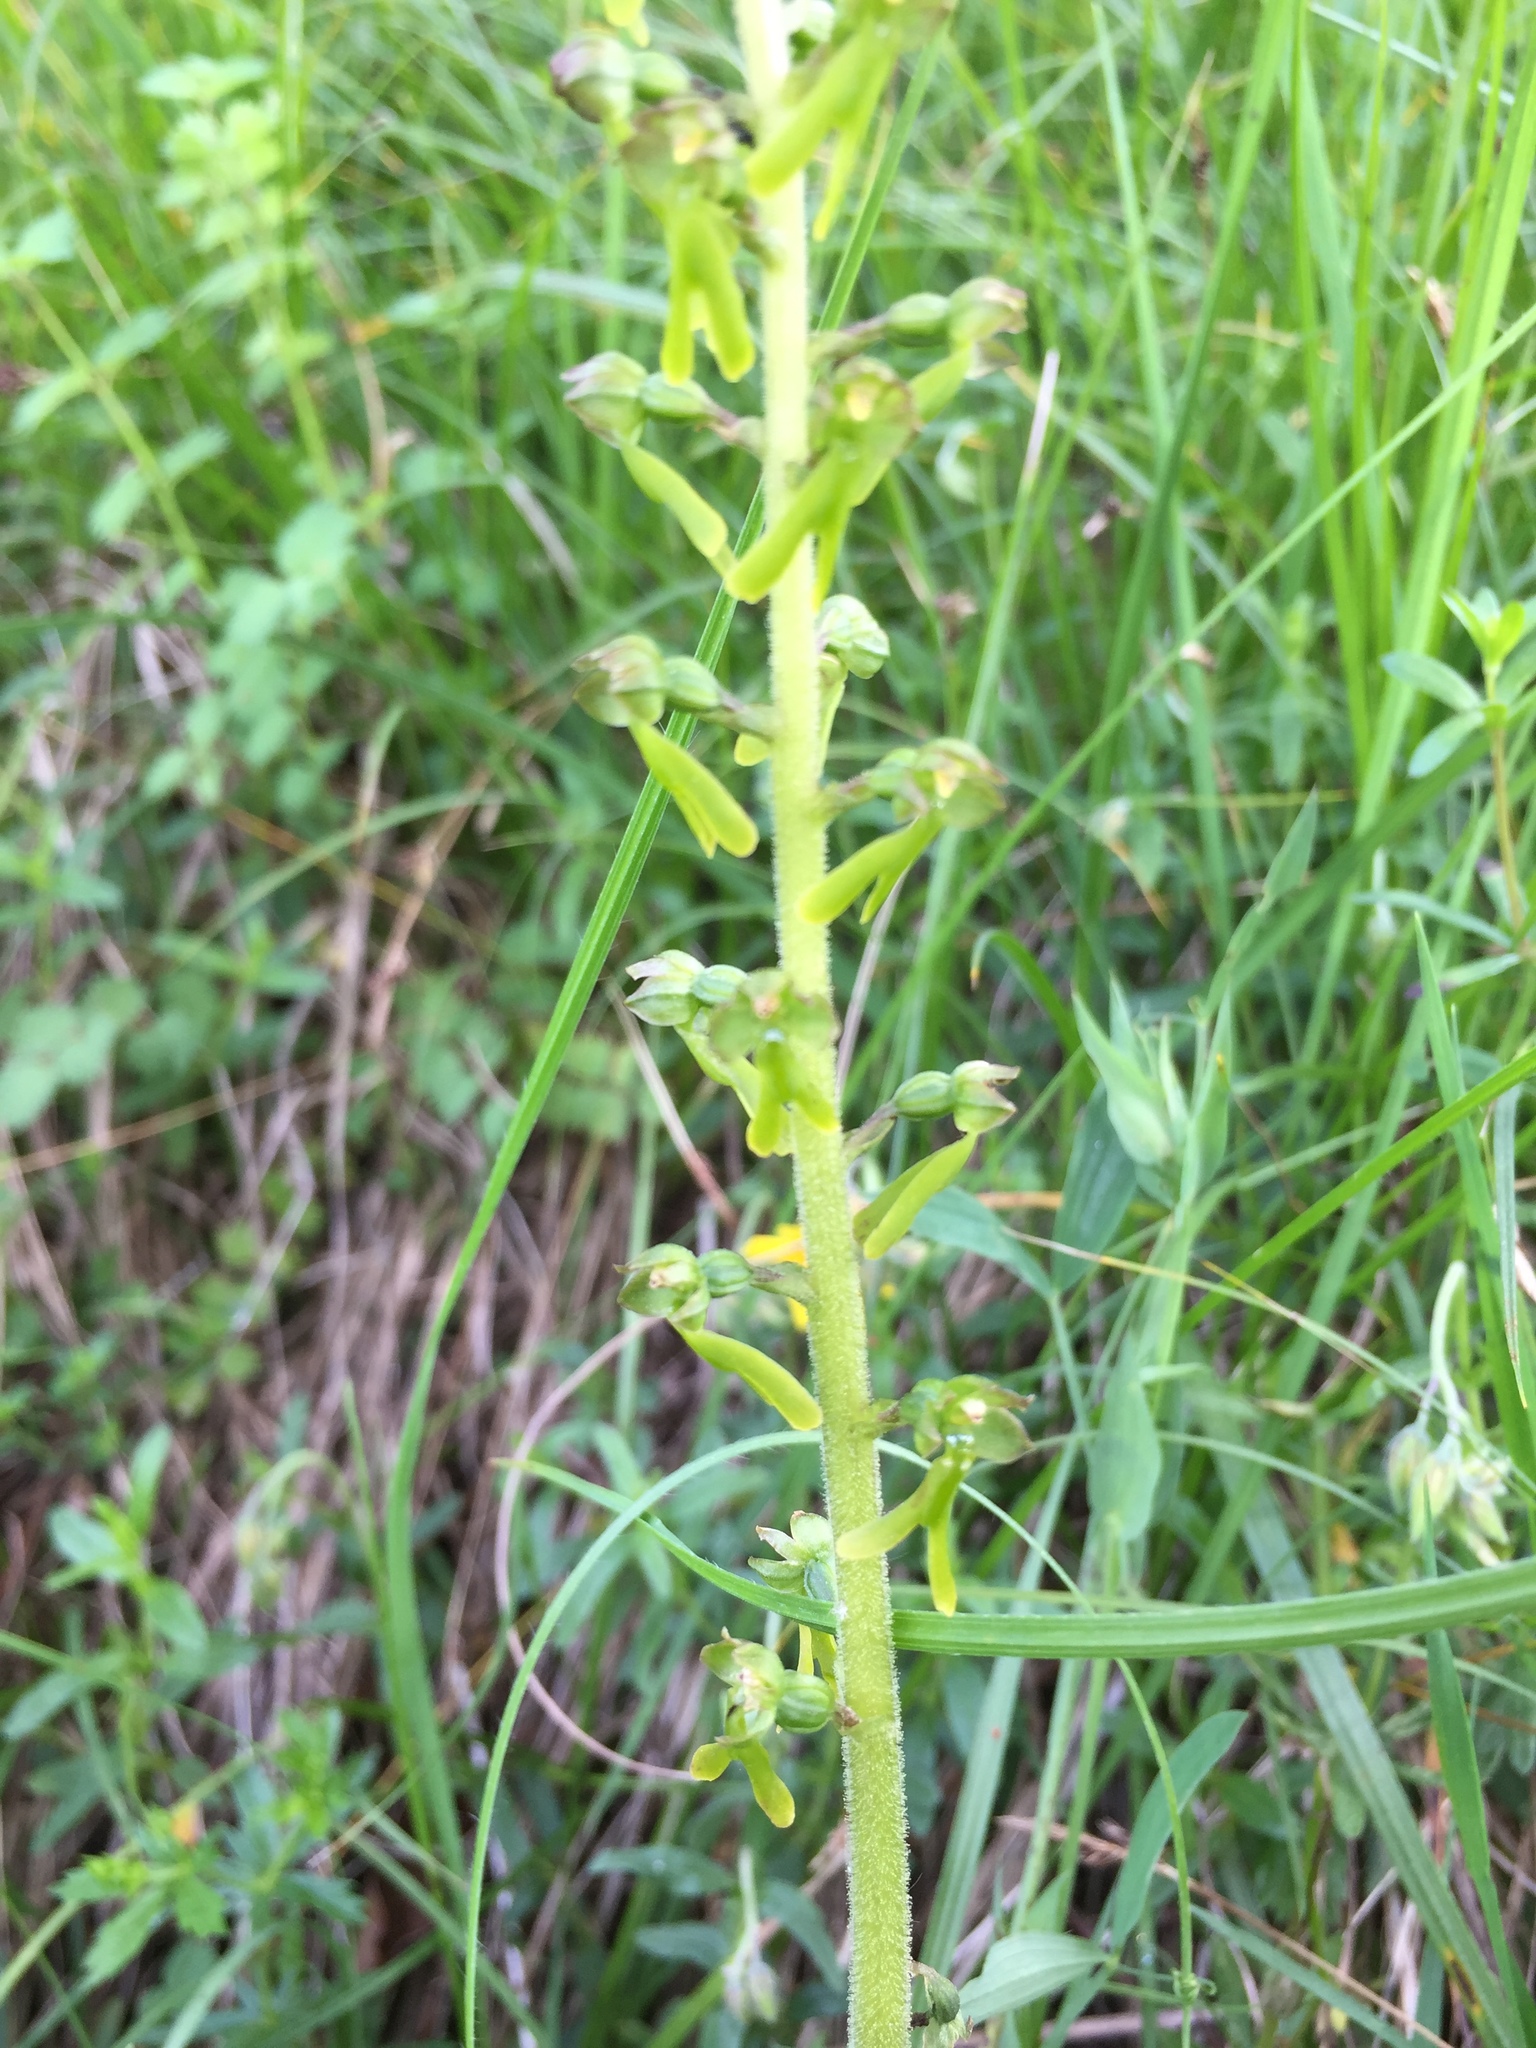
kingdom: Plantae
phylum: Tracheophyta
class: Liliopsida
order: Asparagales
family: Orchidaceae
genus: Neottia
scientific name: Neottia ovata
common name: Common twayblade
